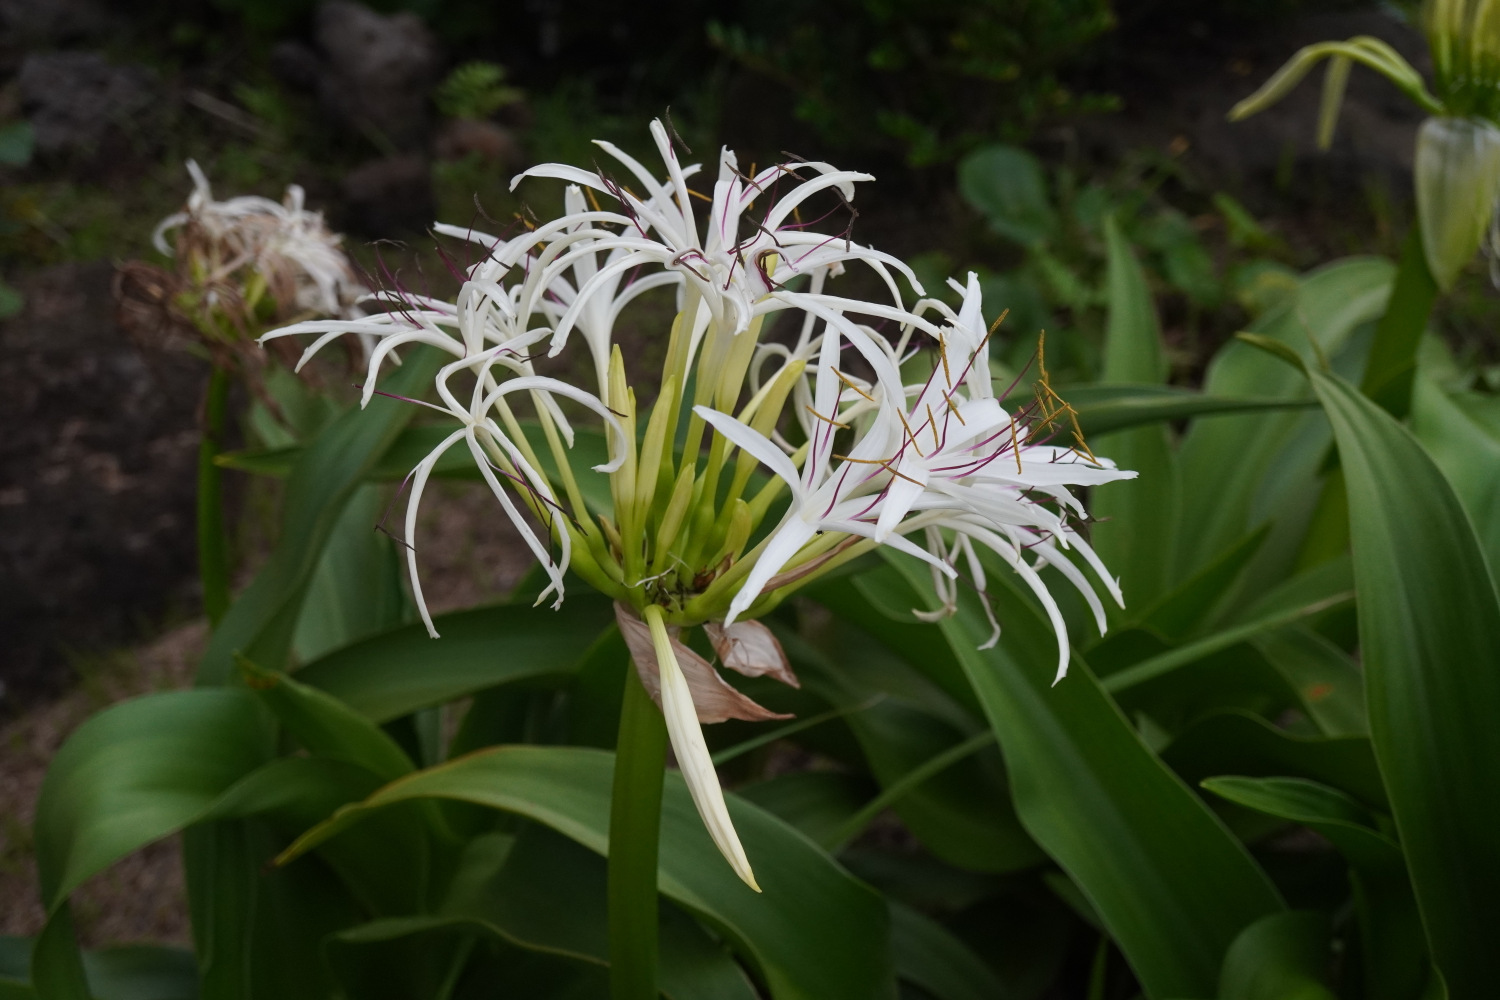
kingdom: Plantae
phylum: Tracheophyta
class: Liliopsida
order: Asparagales
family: Amaryllidaceae
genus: Crinum
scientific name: Crinum asiaticum
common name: Poisonbulb
